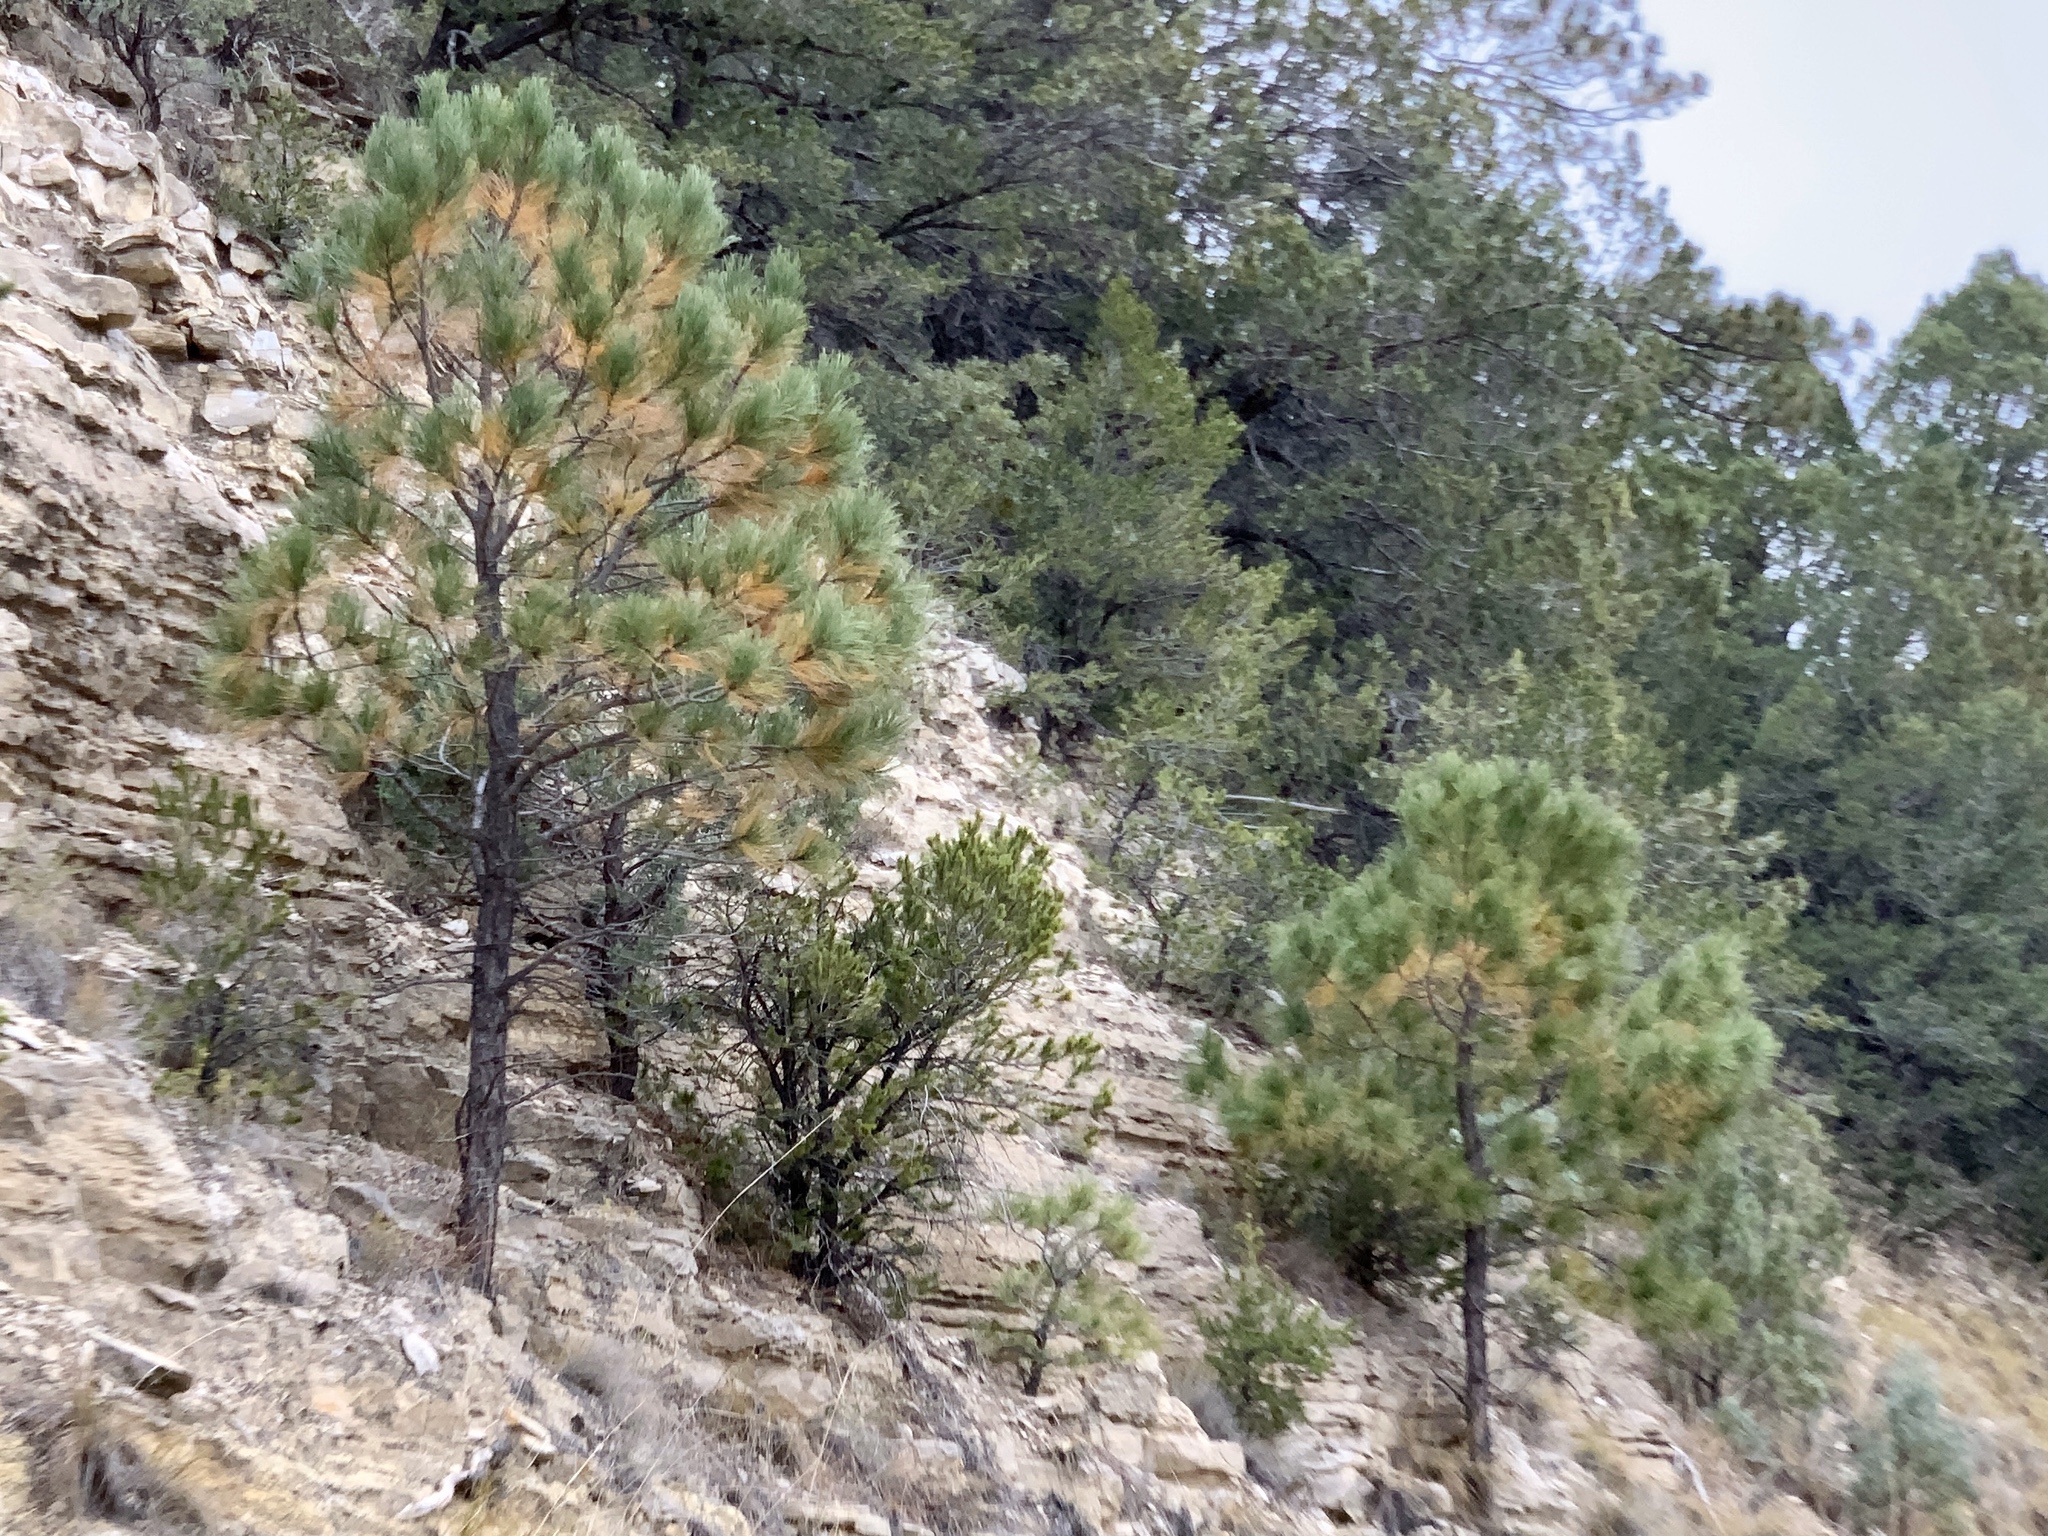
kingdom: Plantae
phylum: Tracheophyta
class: Pinopsida
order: Pinales
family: Pinaceae
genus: Pinus
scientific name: Pinus ponderosa
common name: Western yellow-pine
